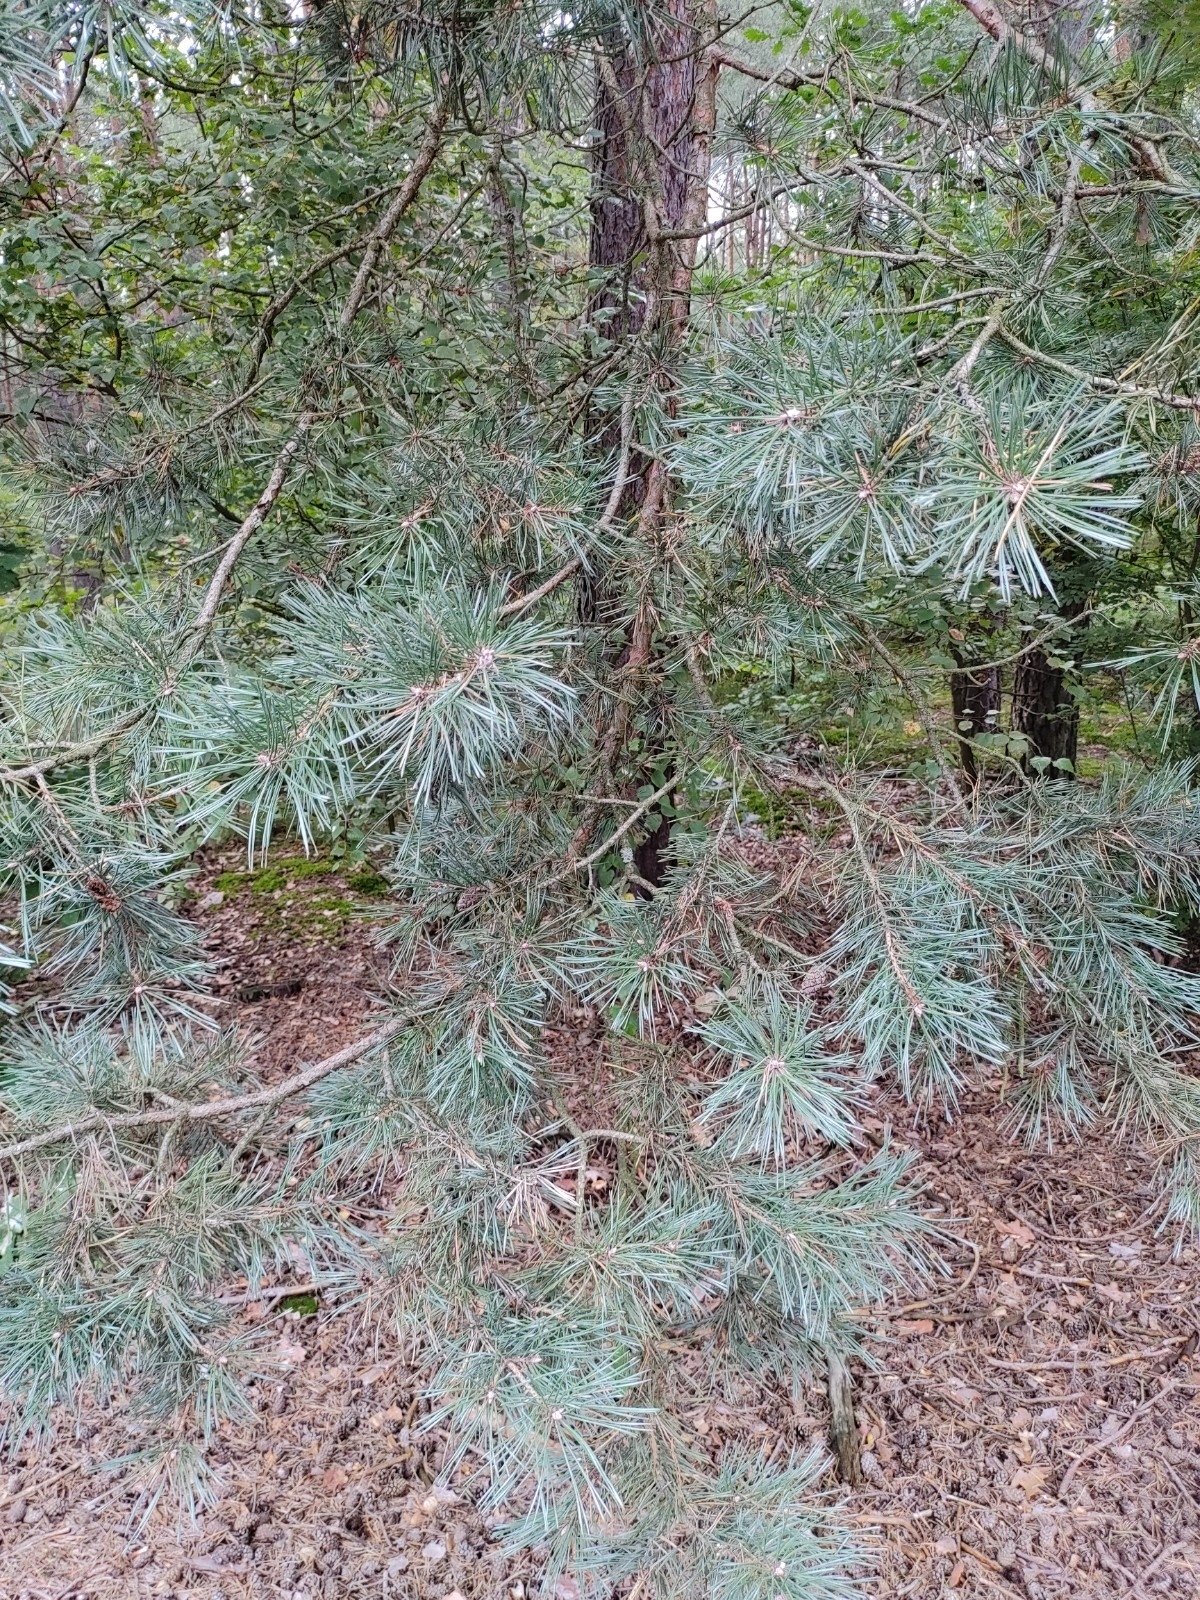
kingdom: Plantae
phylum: Tracheophyta
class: Pinopsida
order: Pinales
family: Pinaceae
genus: Pinus
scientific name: Pinus sylvestris
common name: Scots pine
